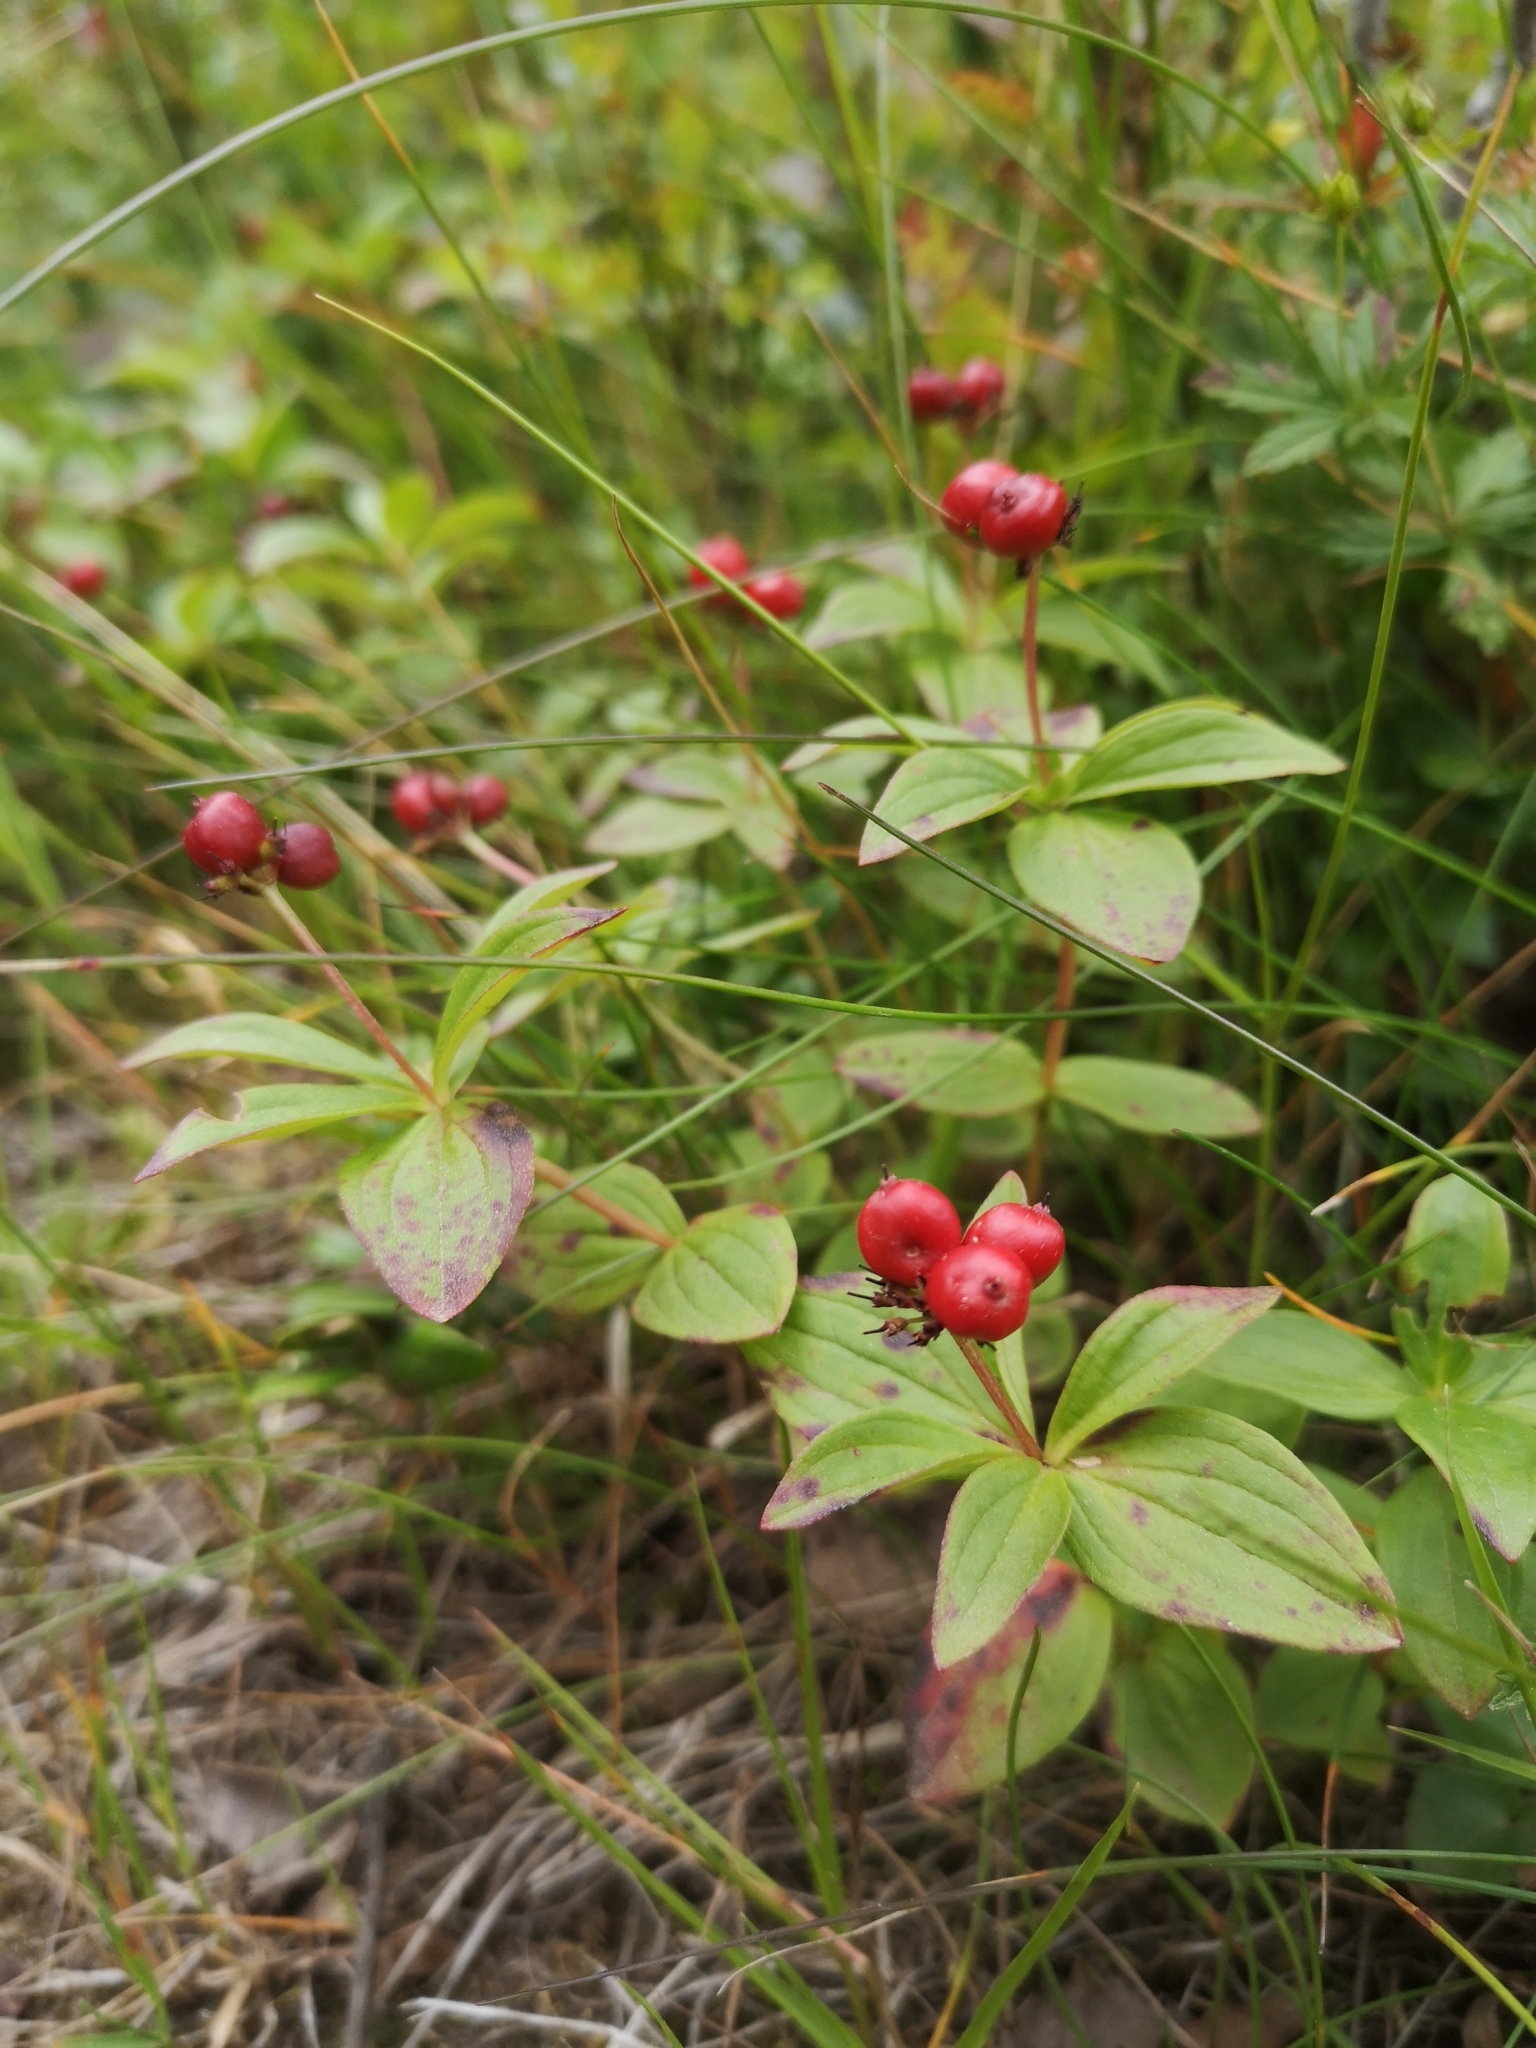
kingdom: Plantae
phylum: Tracheophyta
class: Magnoliopsida
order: Cornales
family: Cornaceae
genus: Cornus
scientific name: Cornus suecica
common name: Dwarf cornel
